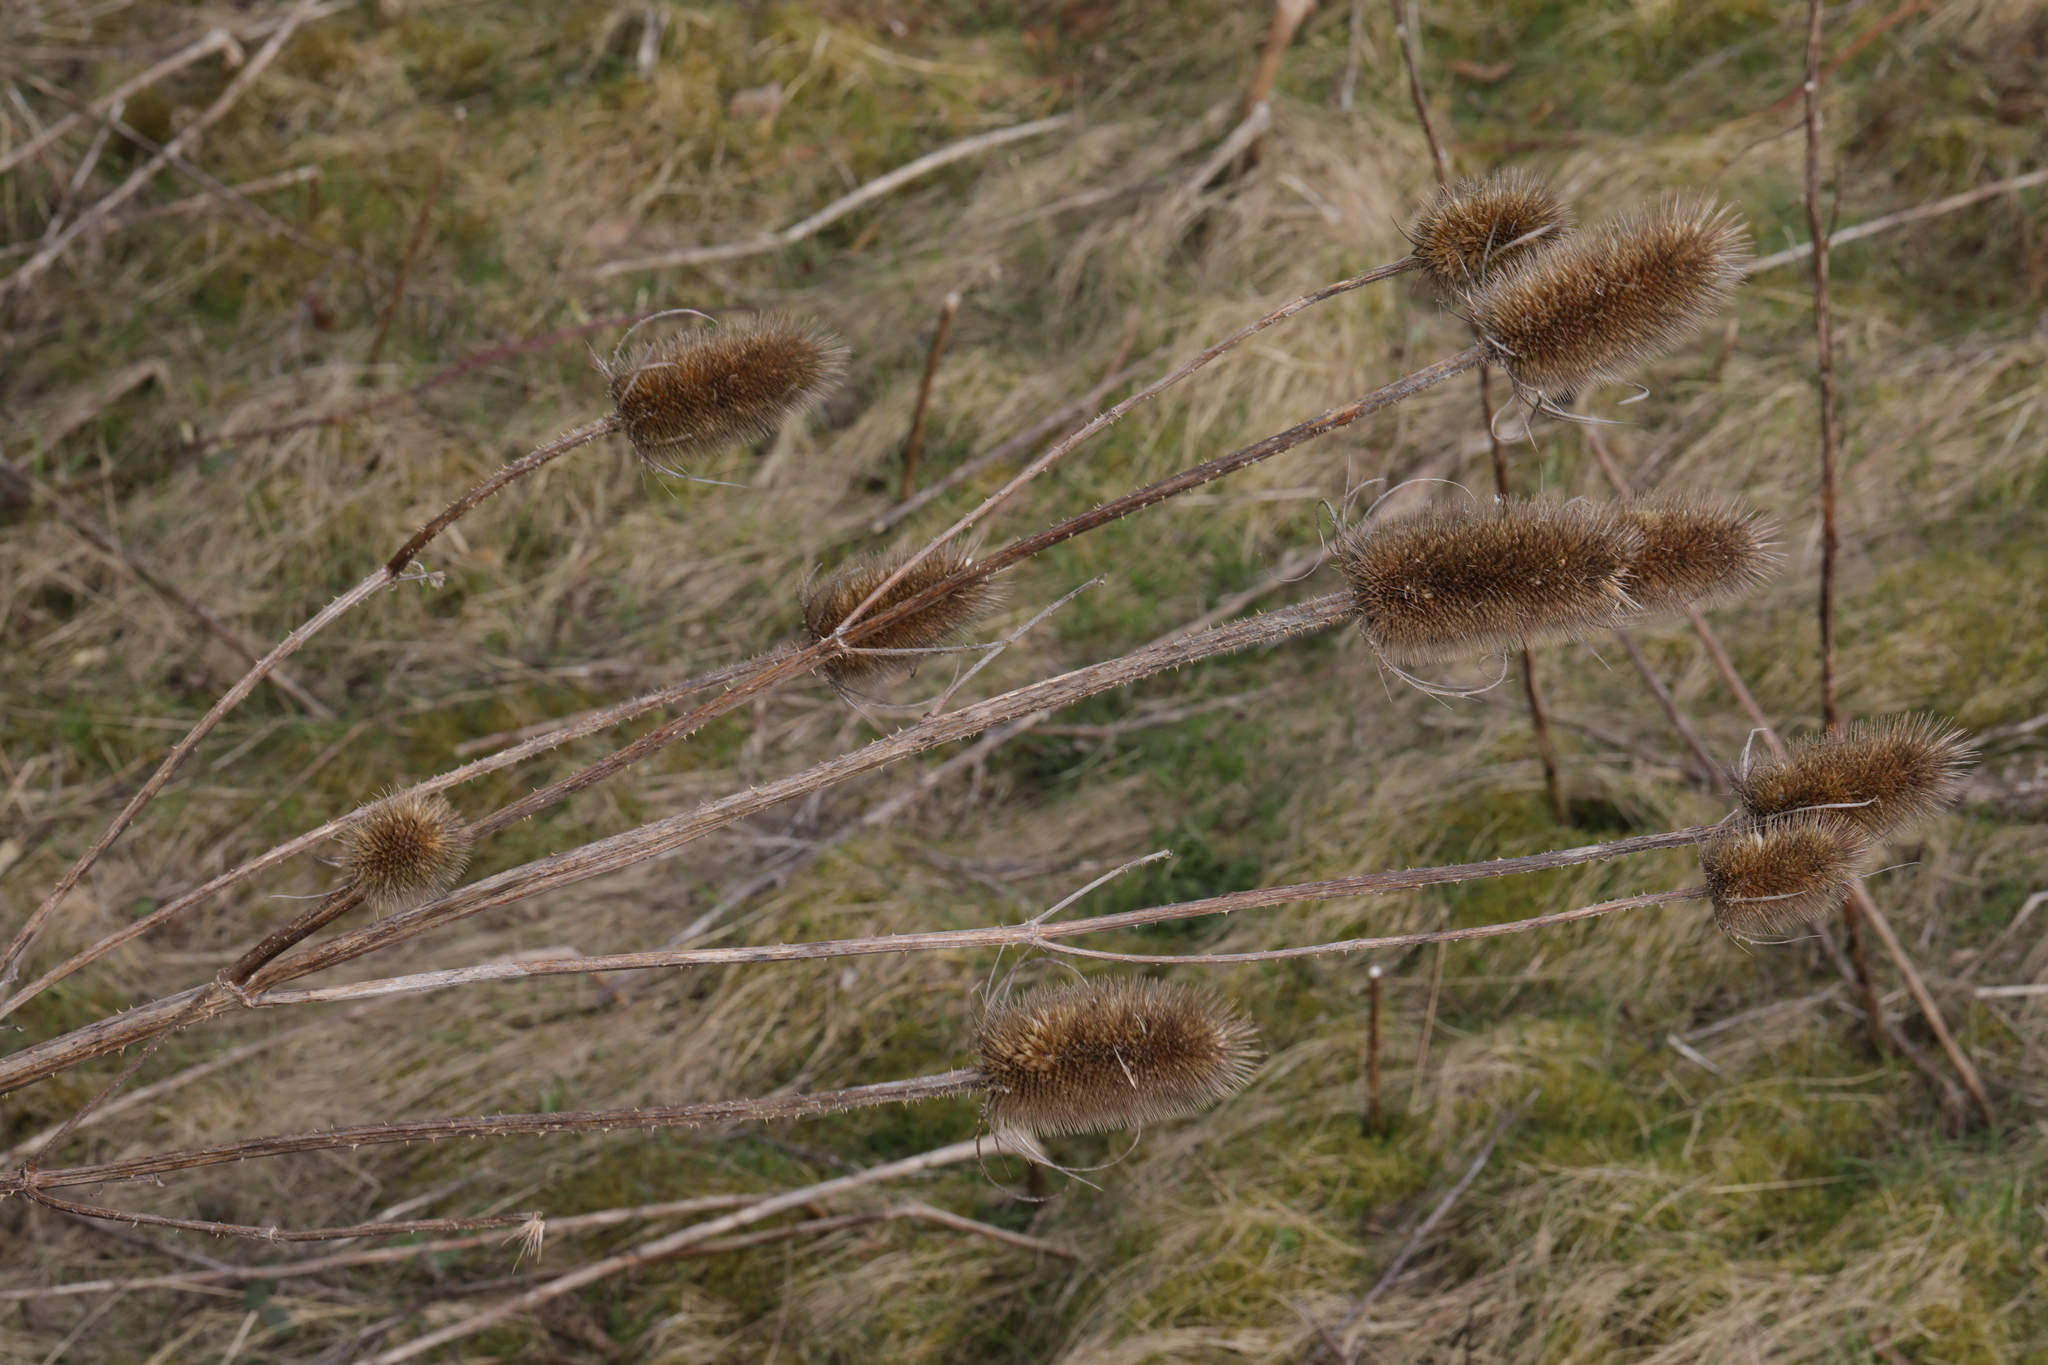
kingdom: Plantae
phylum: Tracheophyta
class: Magnoliopsida
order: Dipsacales
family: Caprifoliaceae
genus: Dipsacus
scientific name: Dipsacus fullonum
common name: Teasel
